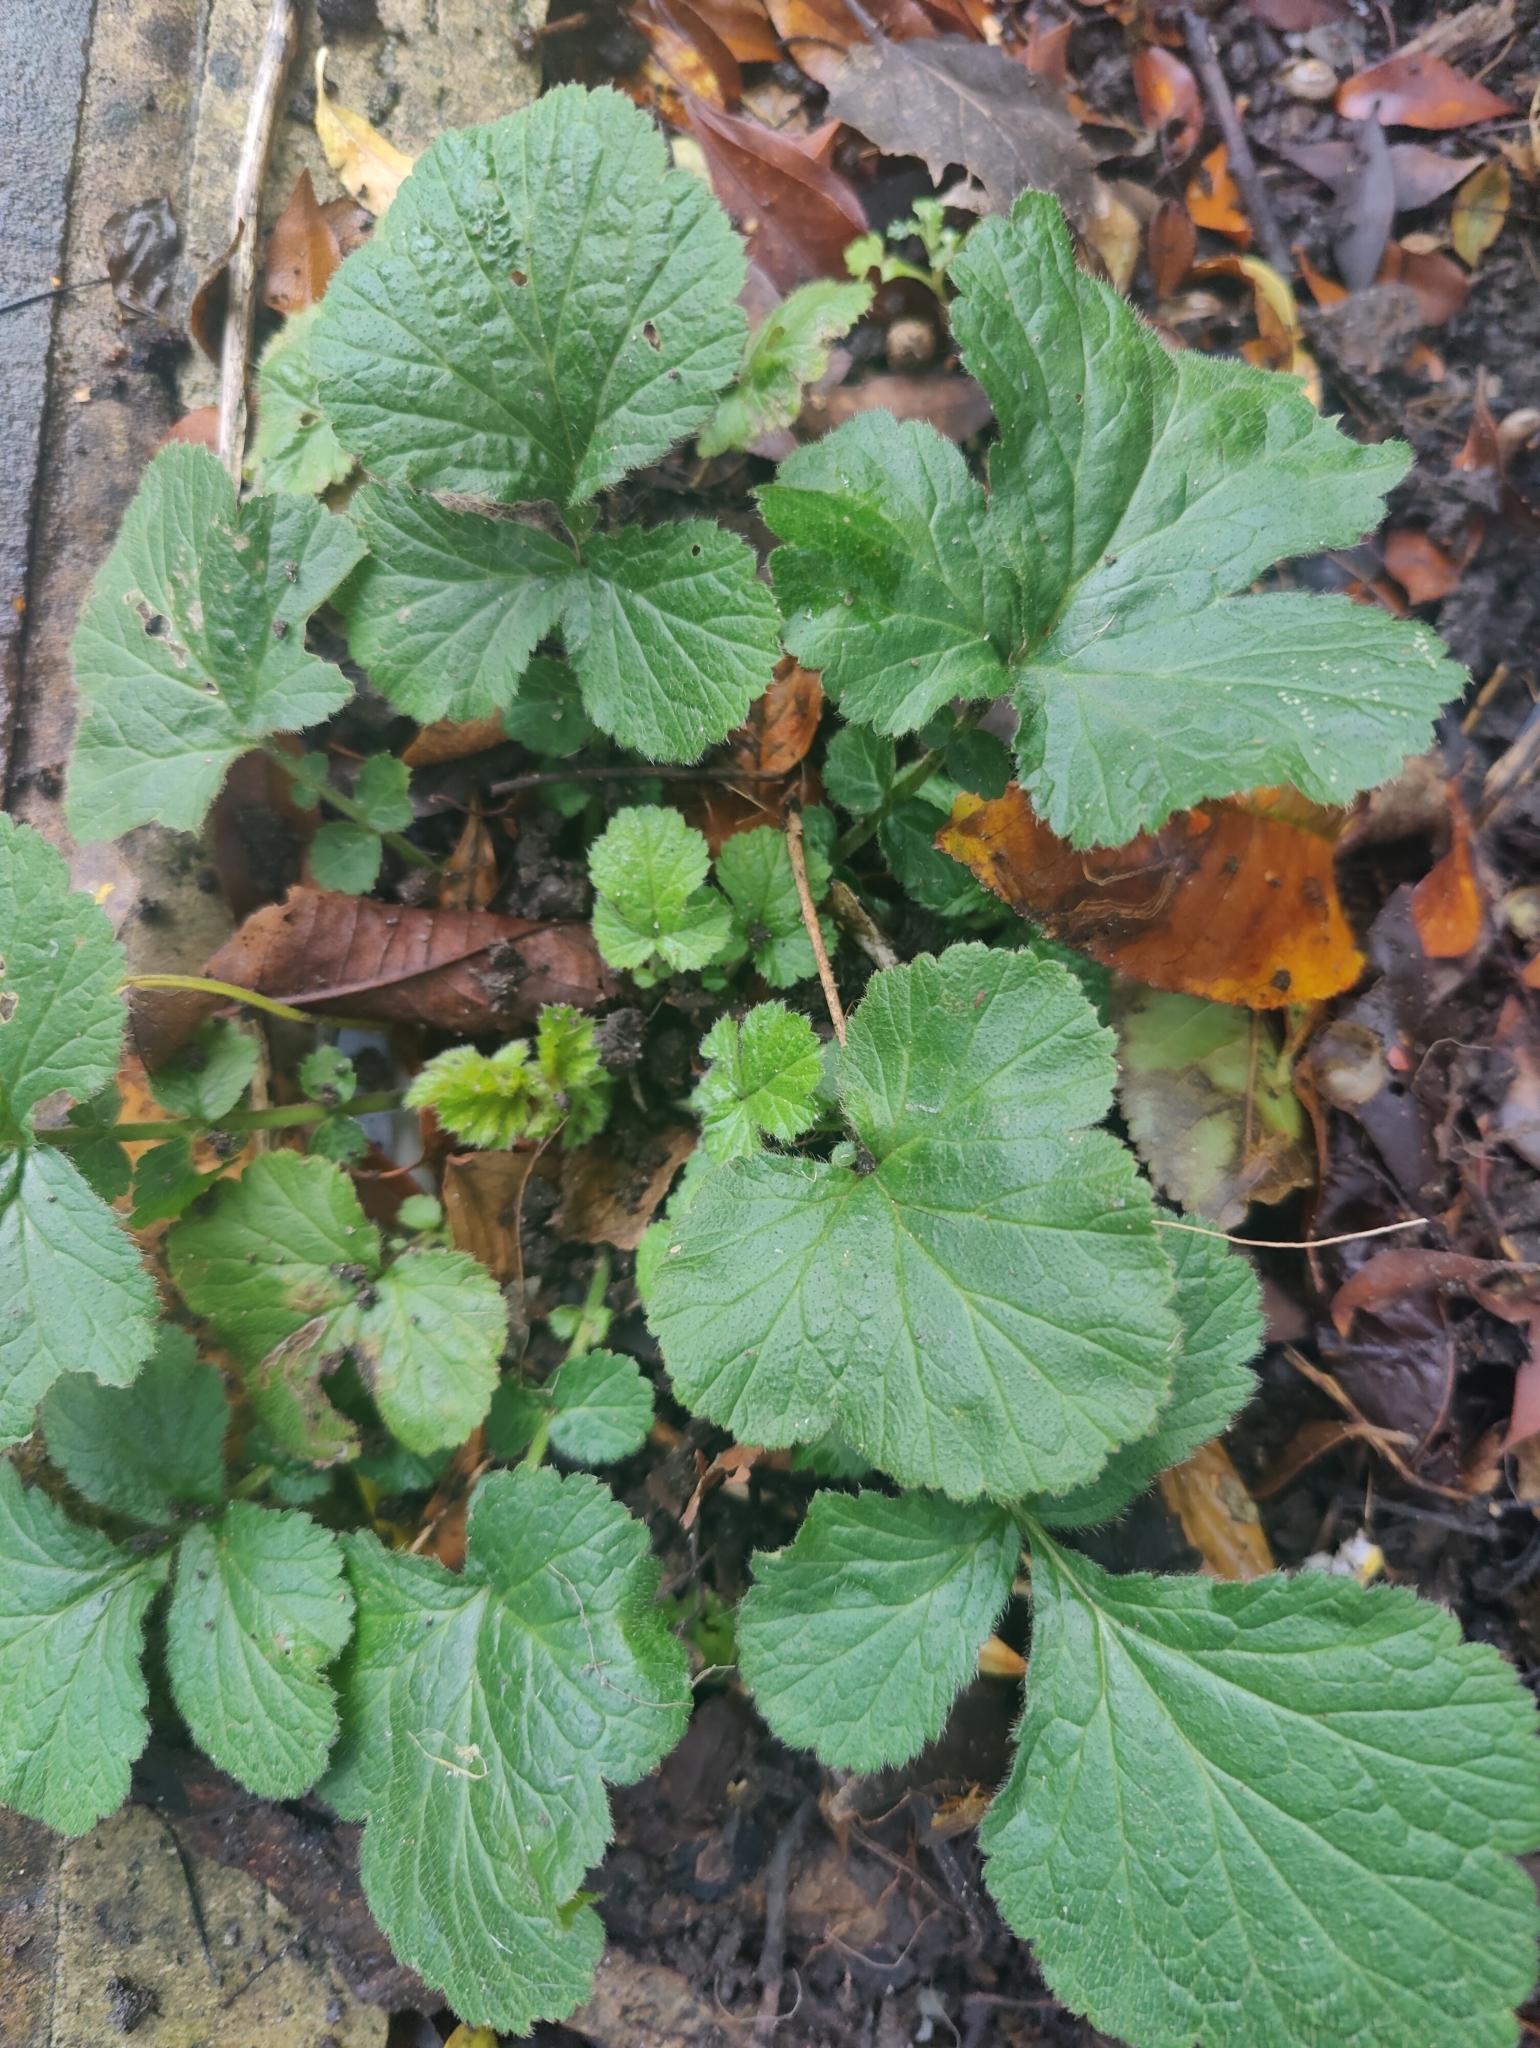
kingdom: Plantae
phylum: Tracheophyta
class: Magnoliopsida
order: Rosales
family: Rosaceae
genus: Geum
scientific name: Geum urbanum
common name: Wood avens
